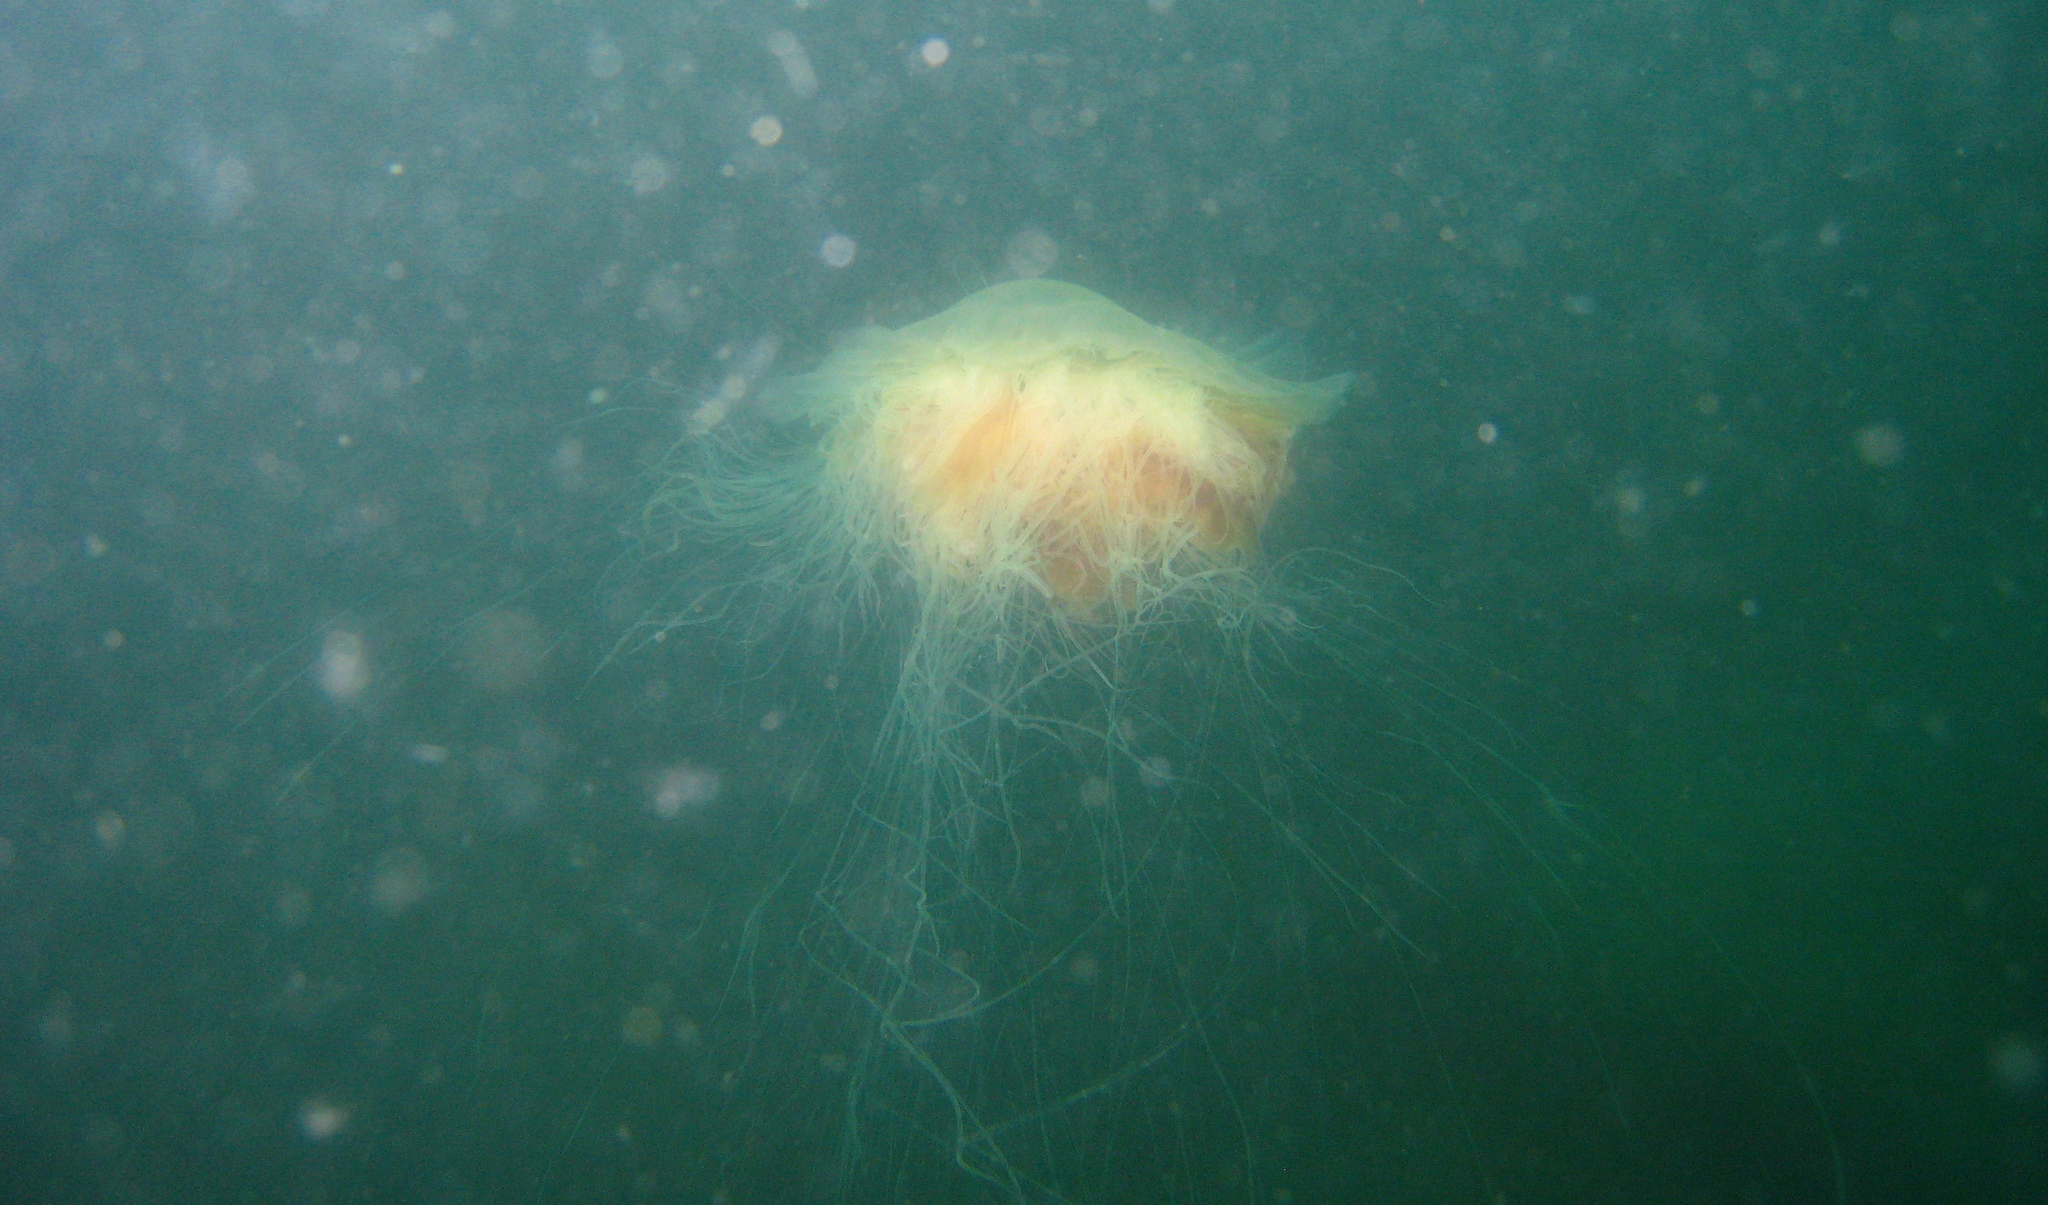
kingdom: Animalia
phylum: Cnidaria
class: Scyphozoa
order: Semaeostomeae
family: Cyaneidae
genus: Cyanea
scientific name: Cyanea ferruginea
